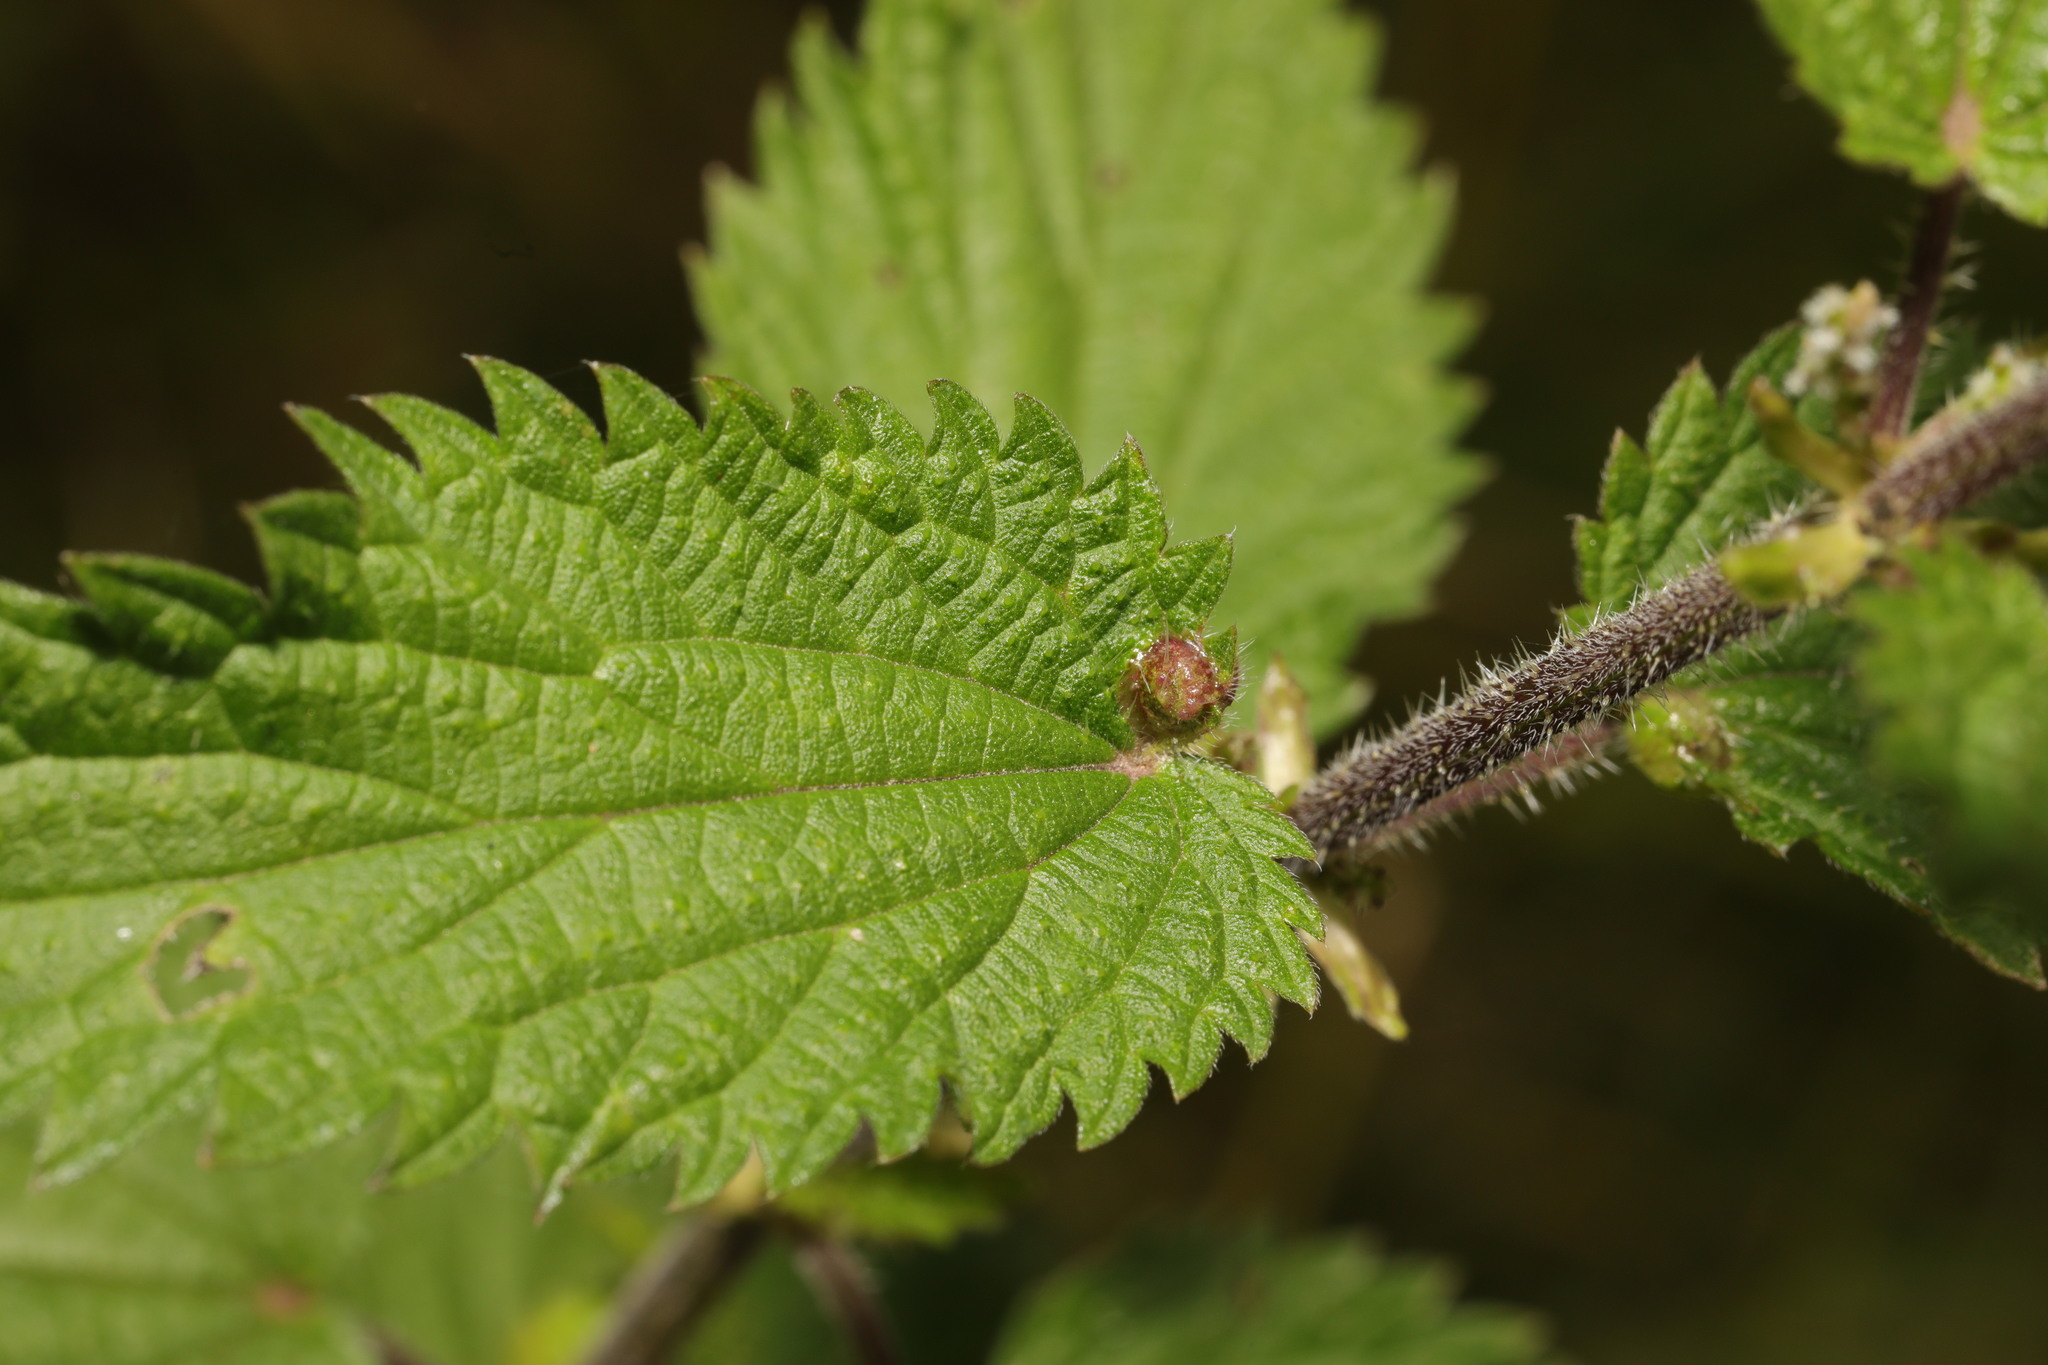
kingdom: Animalia
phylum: Arthropoda
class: Insecta
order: Diptera
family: Cecidomyiidae
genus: Dasineura
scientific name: Dasineura urticae
